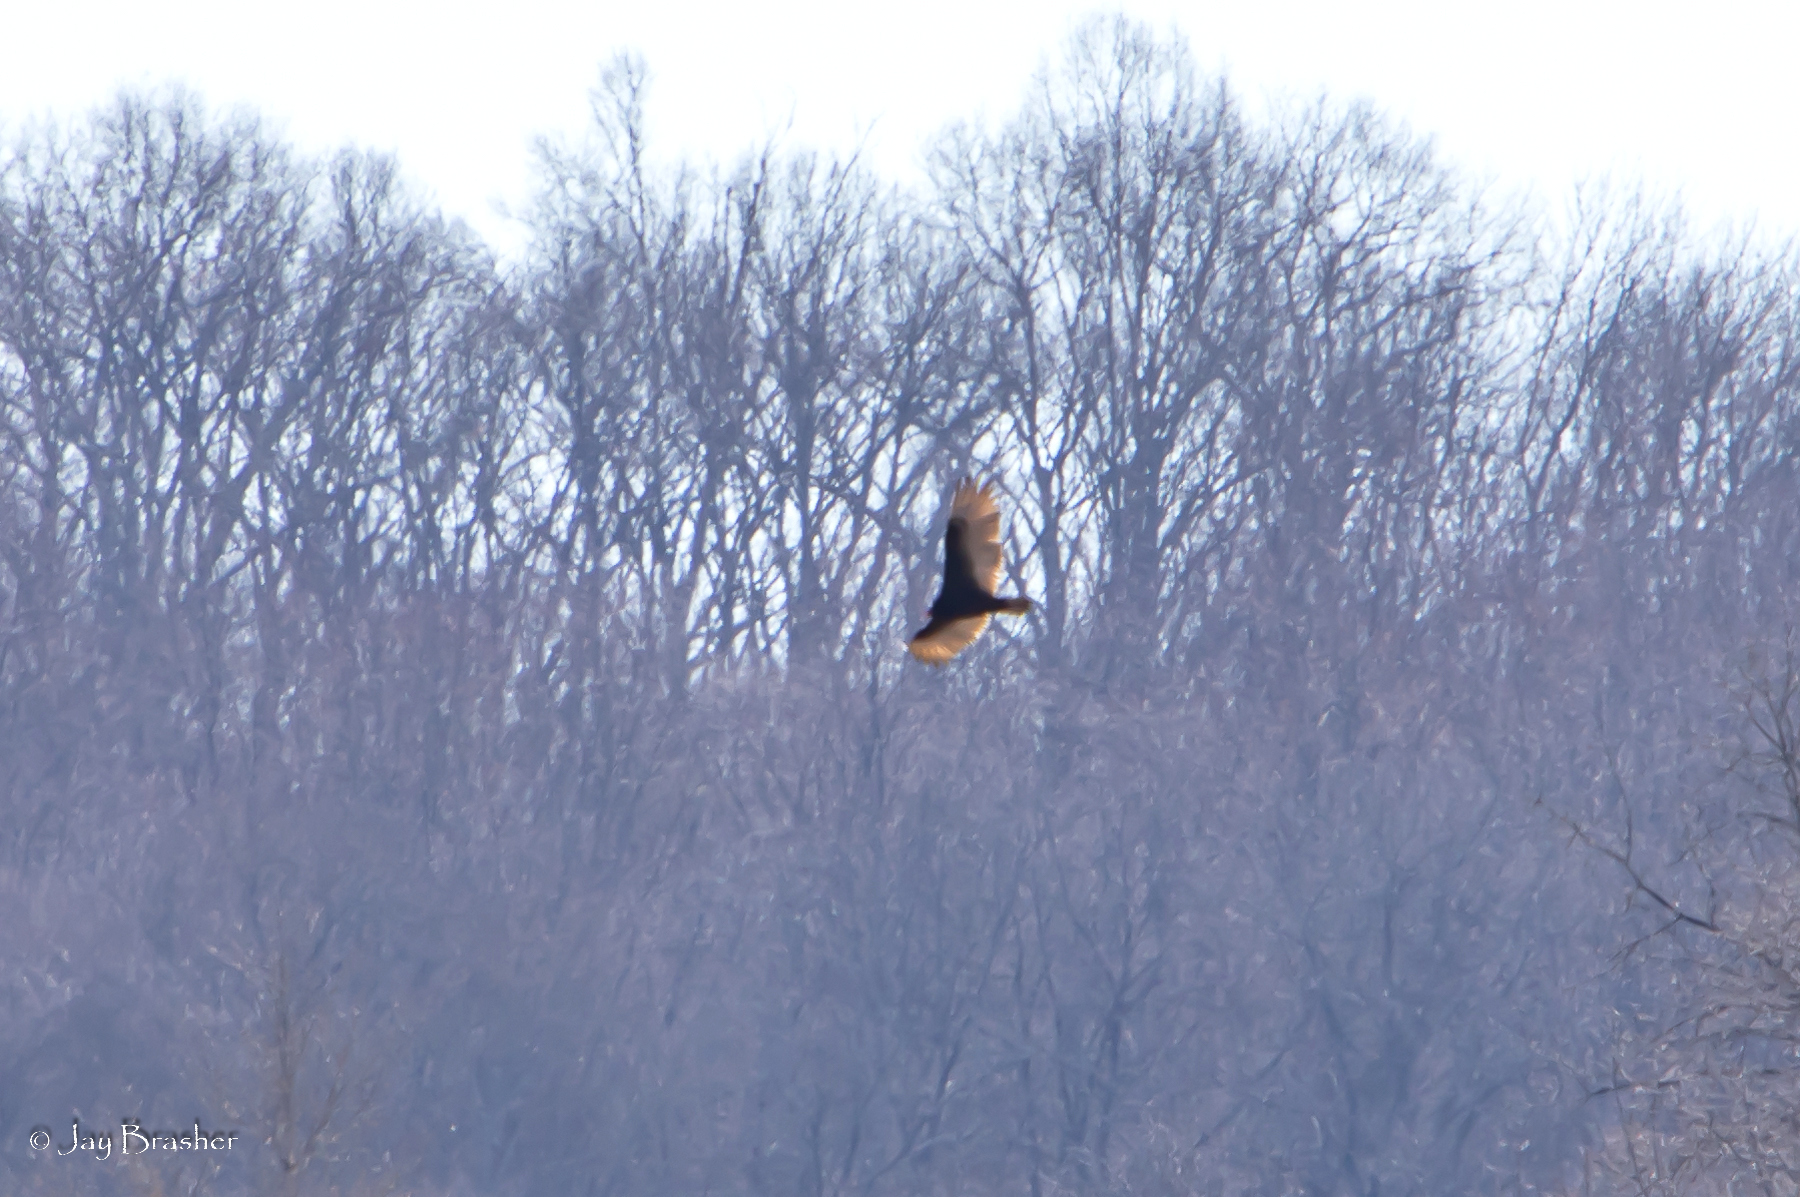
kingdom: Animalia
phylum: Chordata
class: Aves
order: Accipitriformes
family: Cathartidae
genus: Cathartes
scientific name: Cathartes aura
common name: Turkey vulture
